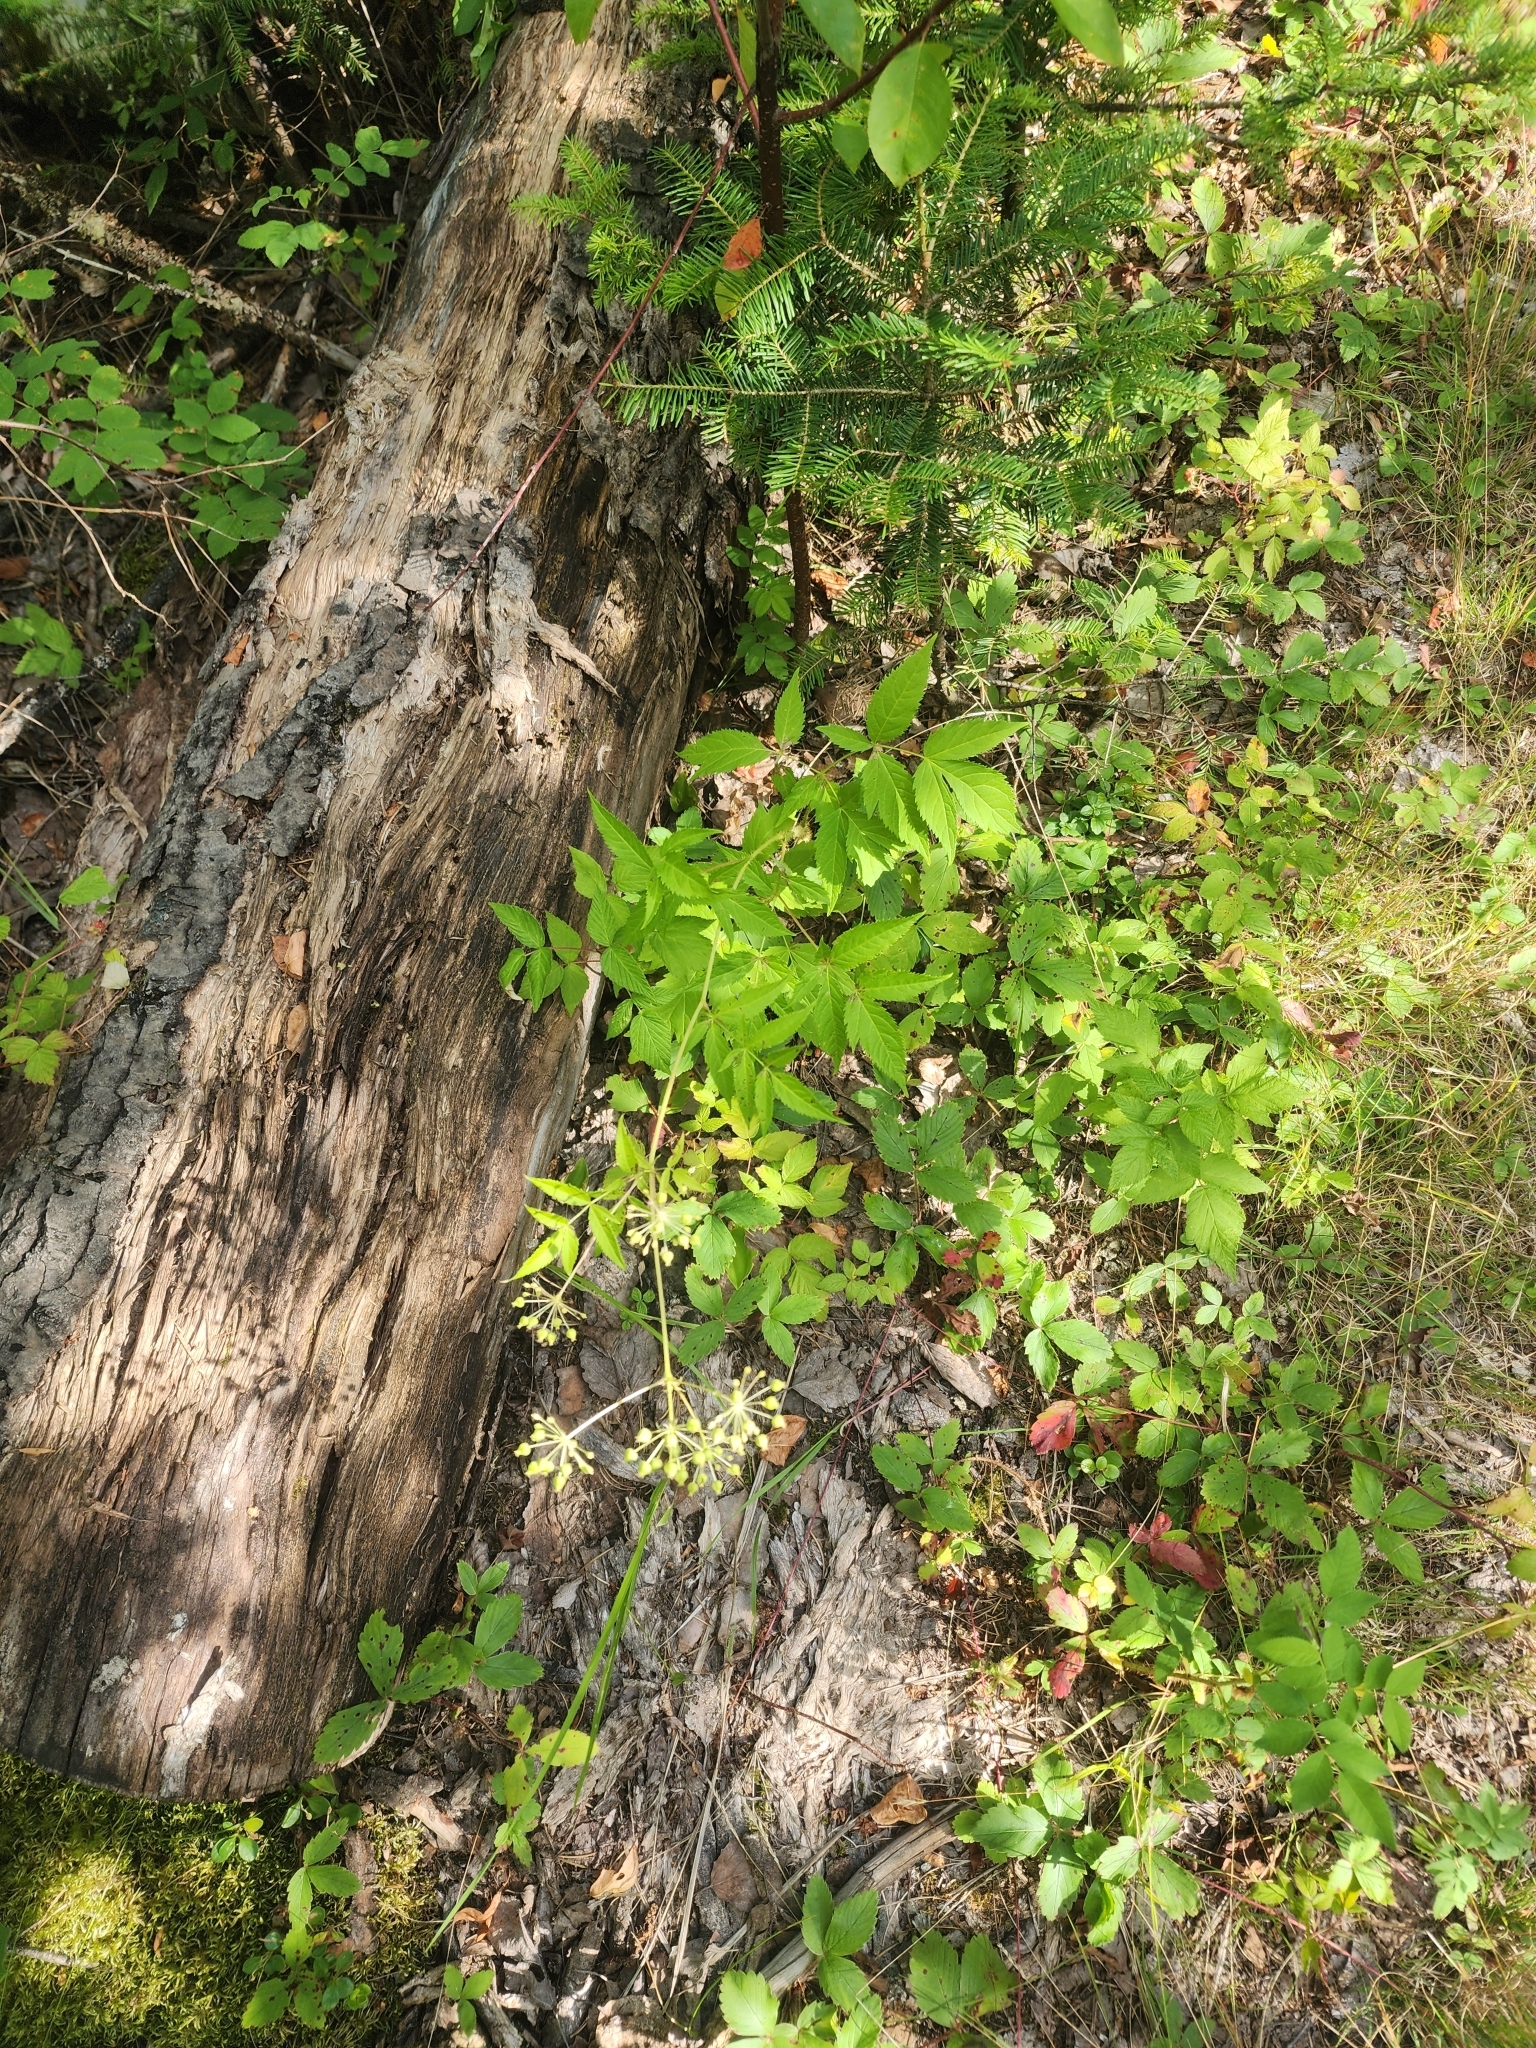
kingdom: Plantae
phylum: Tracheophyta
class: Magnoliopsida
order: Apiales
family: Araliaceae
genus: Aralia
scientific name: Aralia hispida
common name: Bristly sarsaparilla
